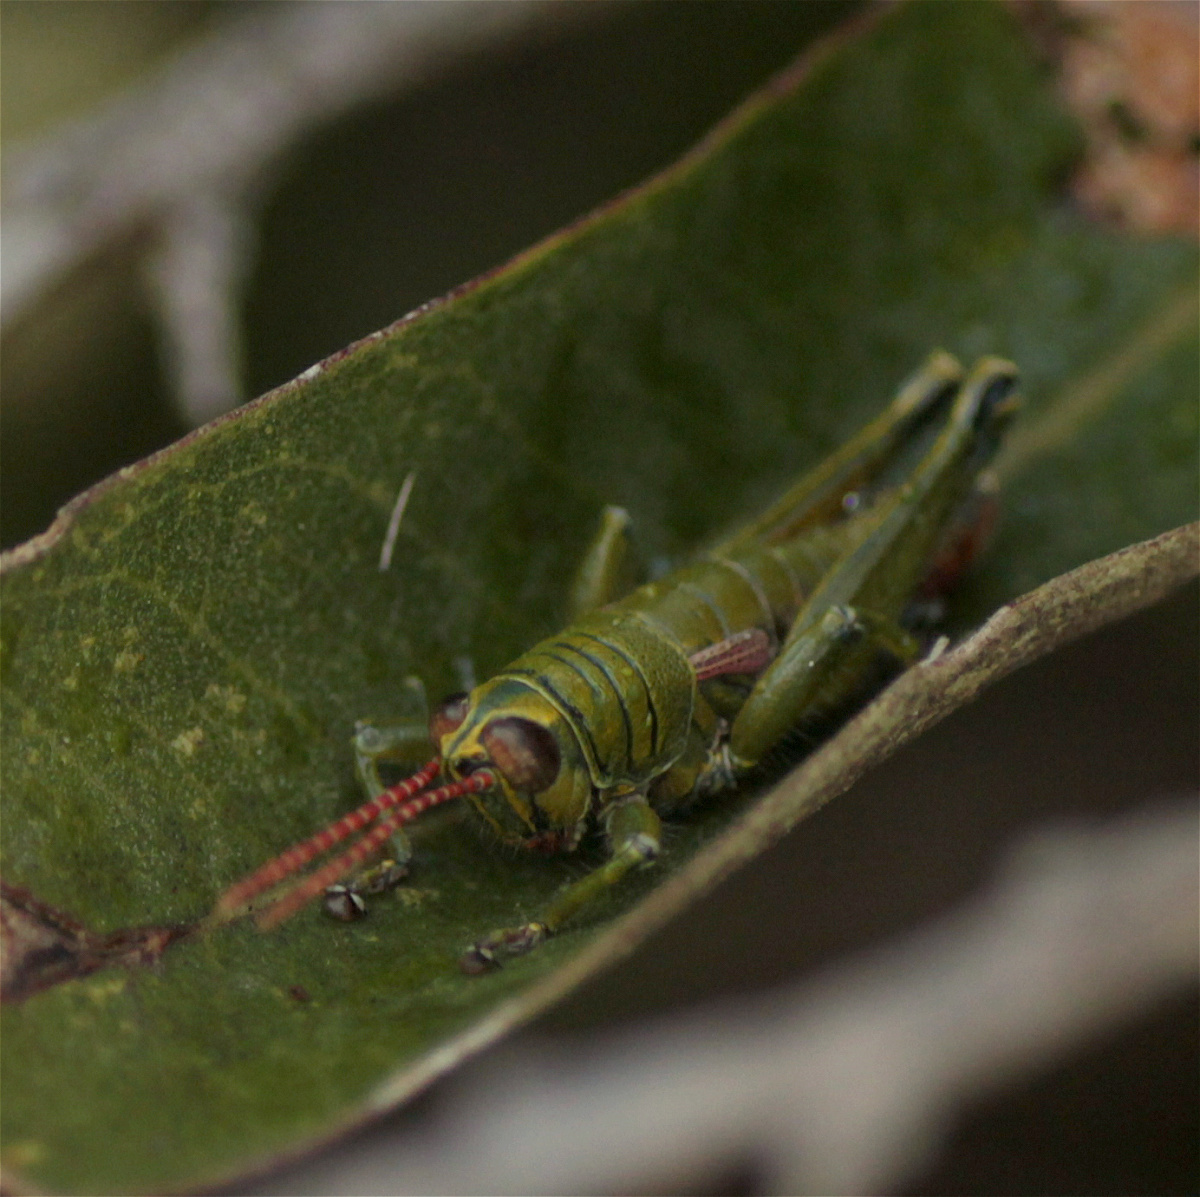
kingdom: Animalia
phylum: Arthropoda
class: Insecta
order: Orthoptera
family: Acrididae
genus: Agesander
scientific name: Agesander ruficornis
